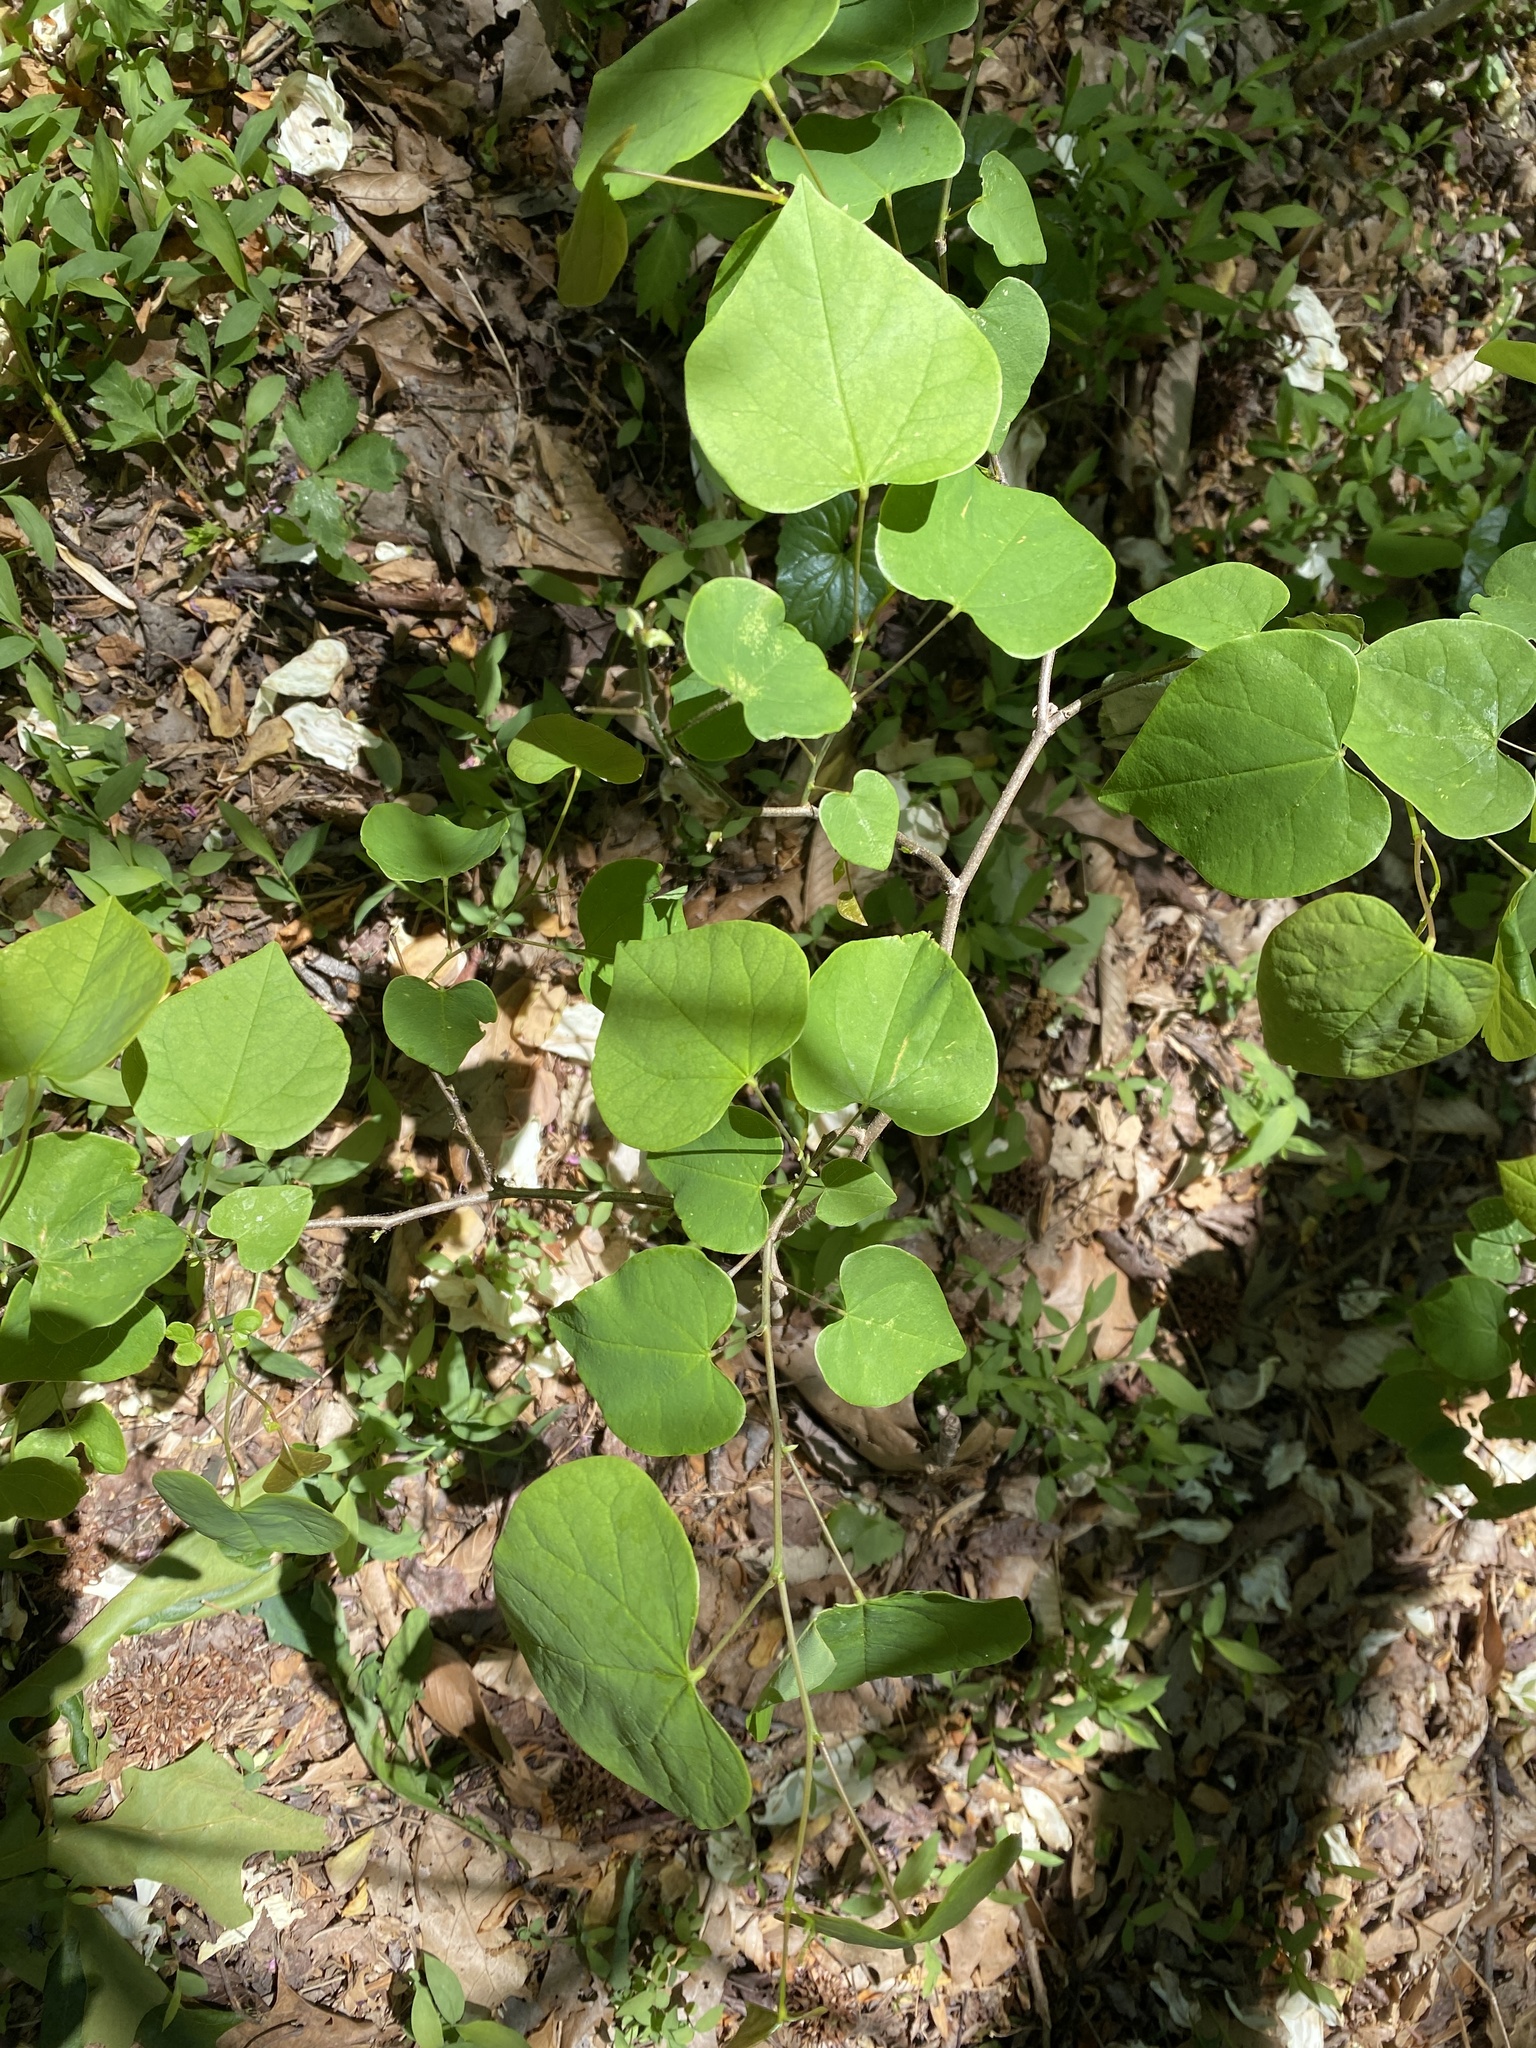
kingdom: Plantae
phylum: Tracheophyta
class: Magnoliopsida
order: Fabales
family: Fabaceae
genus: Cercis
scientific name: Cercis canadensis
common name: Eastern redbud
